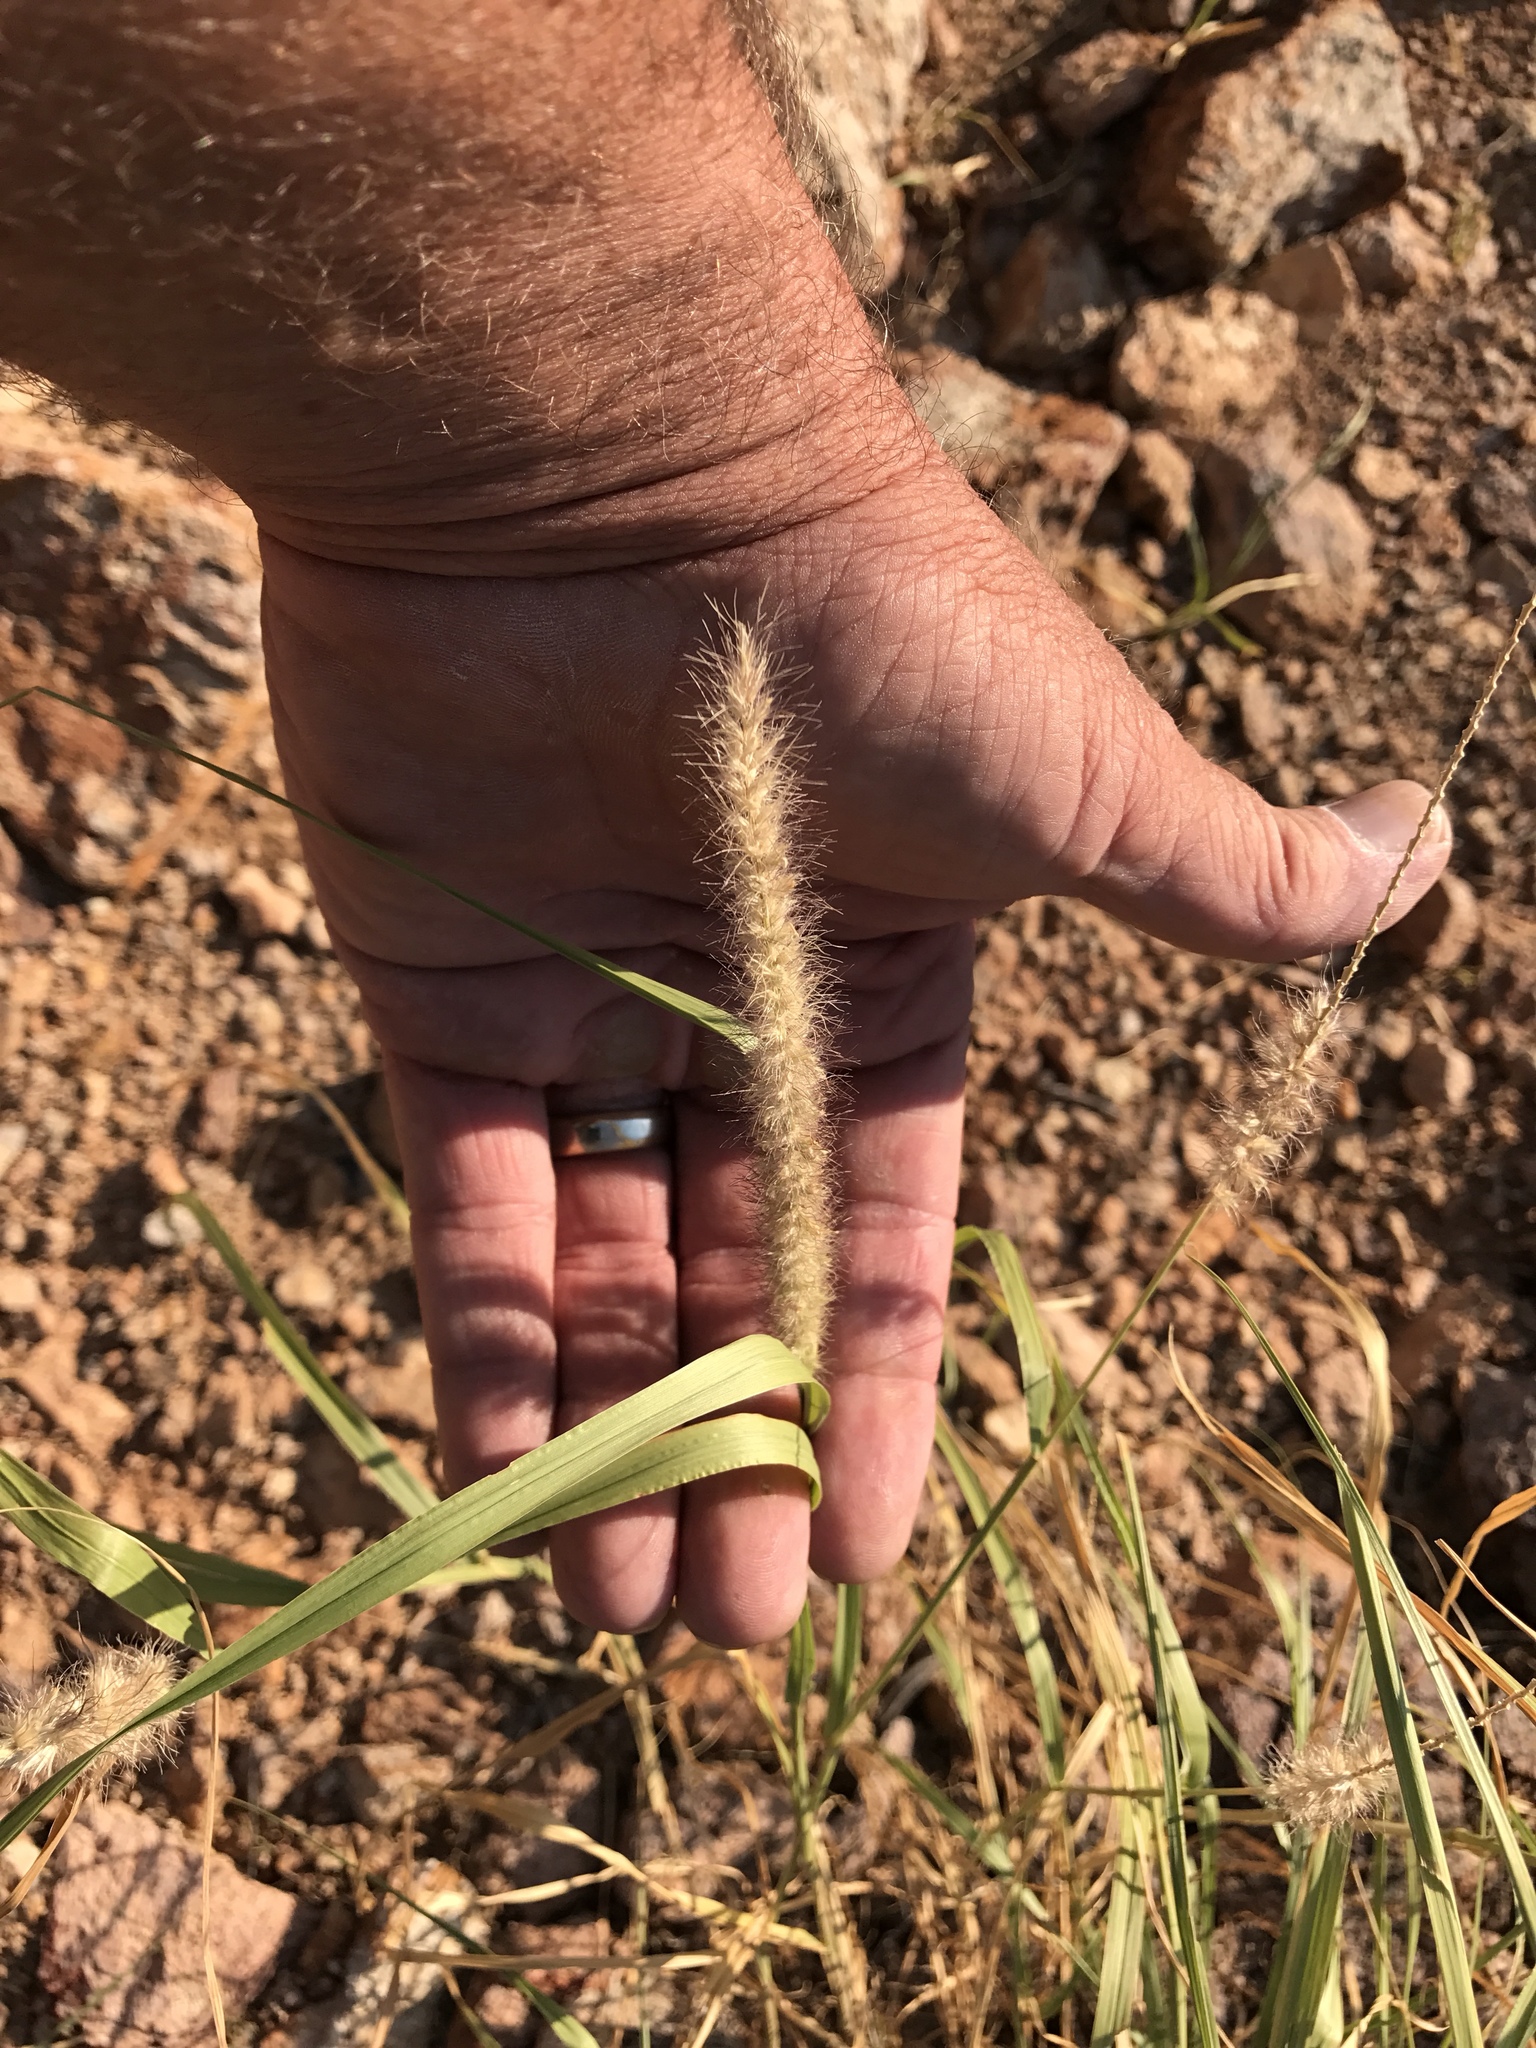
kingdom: Plantae
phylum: Tracheophyta
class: Liliopsida
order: Poales
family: Poaceae
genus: Cenchrus
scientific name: Cenchrus ciliaris
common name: Buffelgrass
